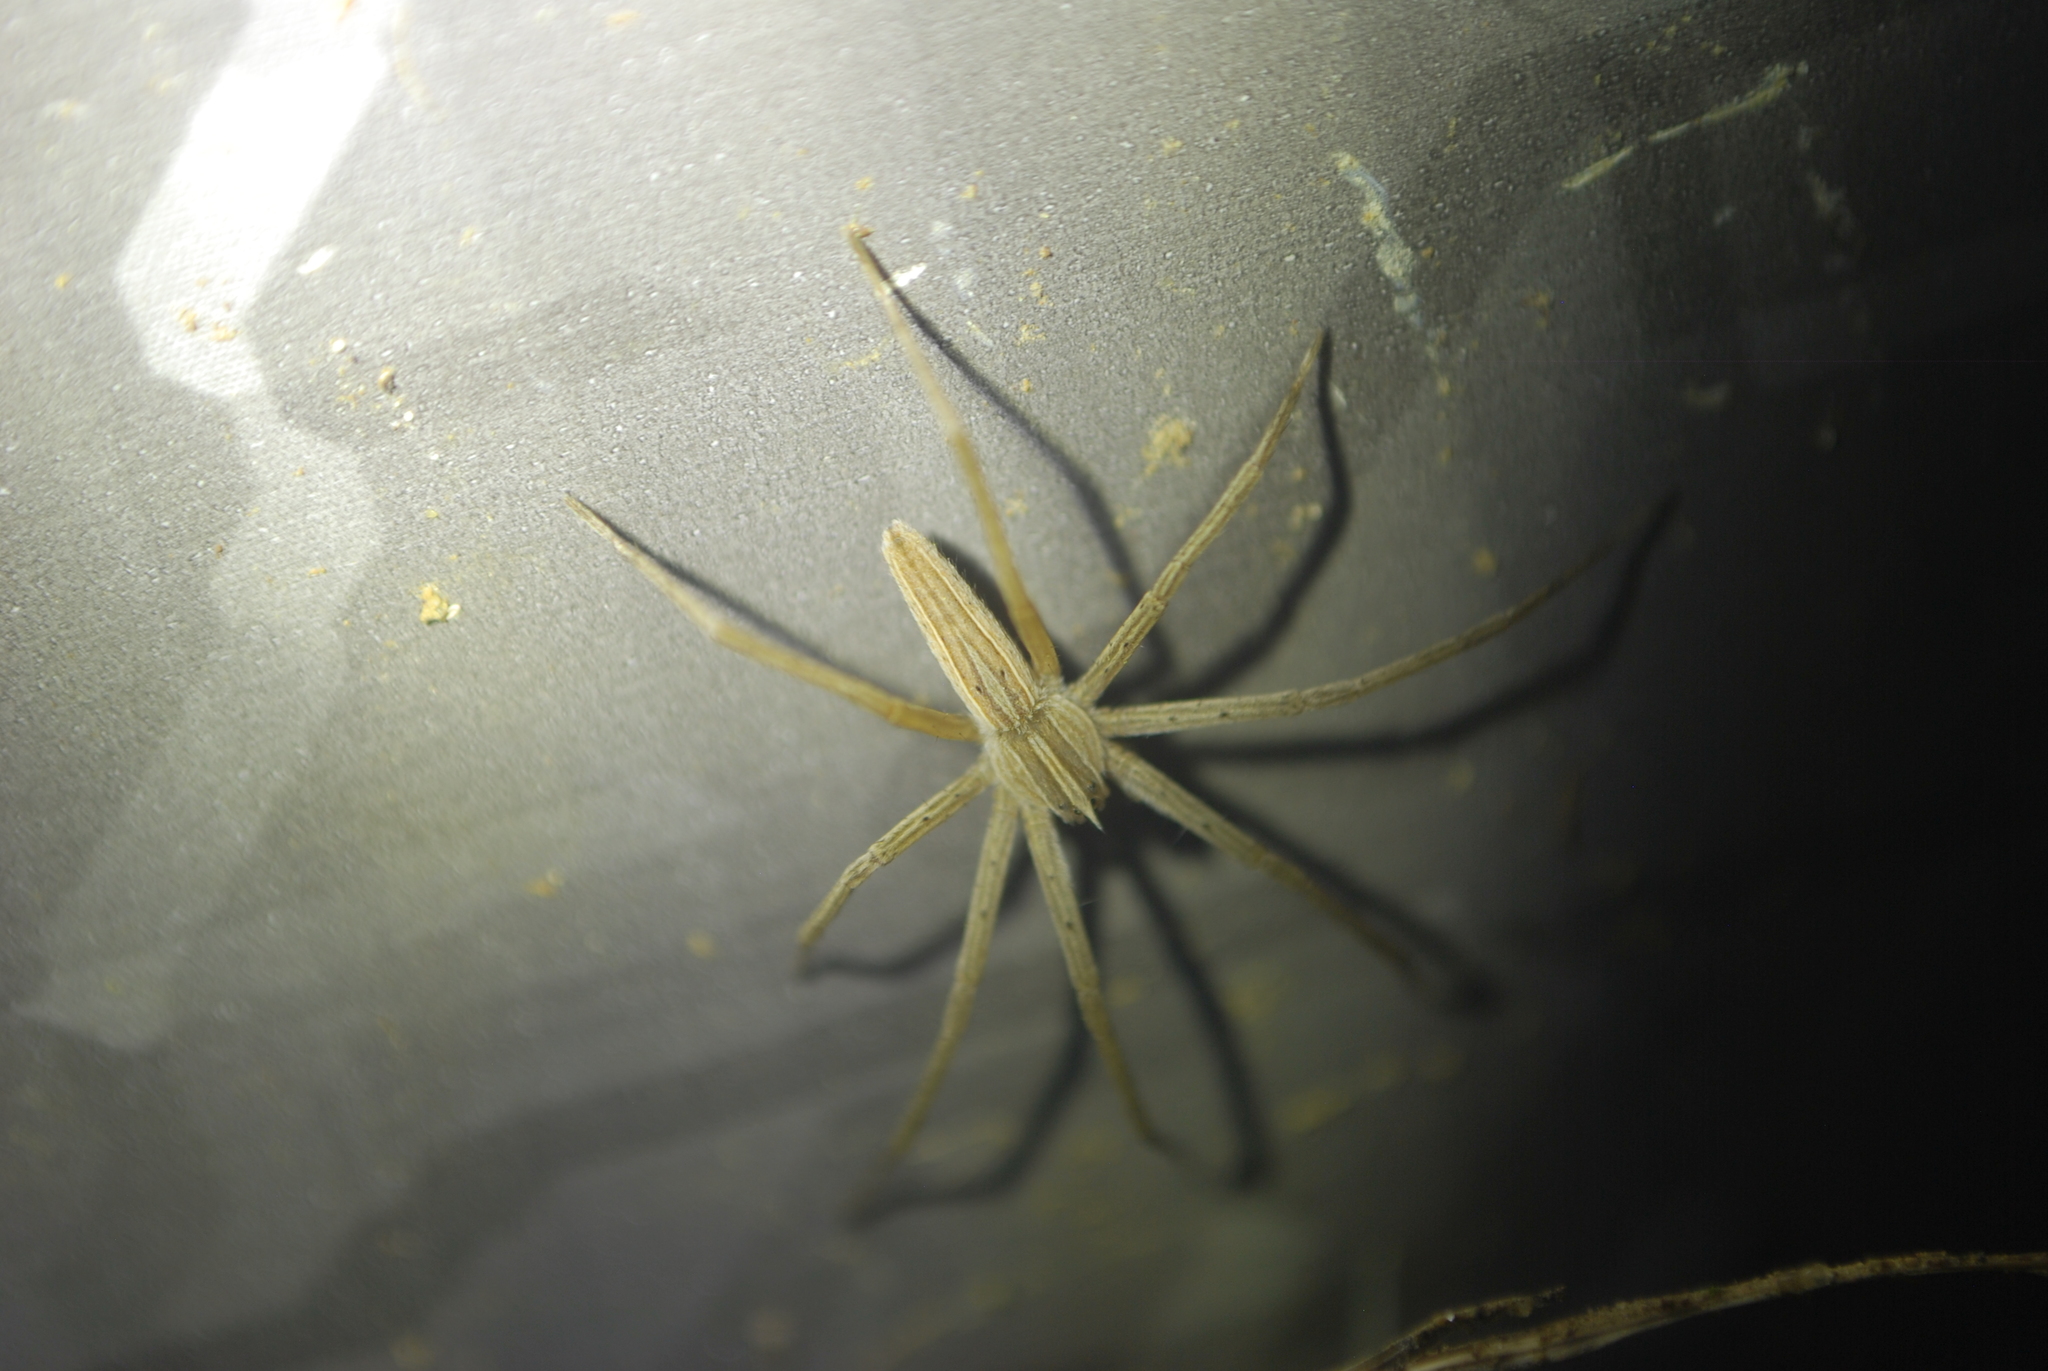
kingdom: Animalia
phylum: Arthropoda
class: Arachnida
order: Araneae
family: Pisauridae
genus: Pisaurina
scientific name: Pisaurina dubia
